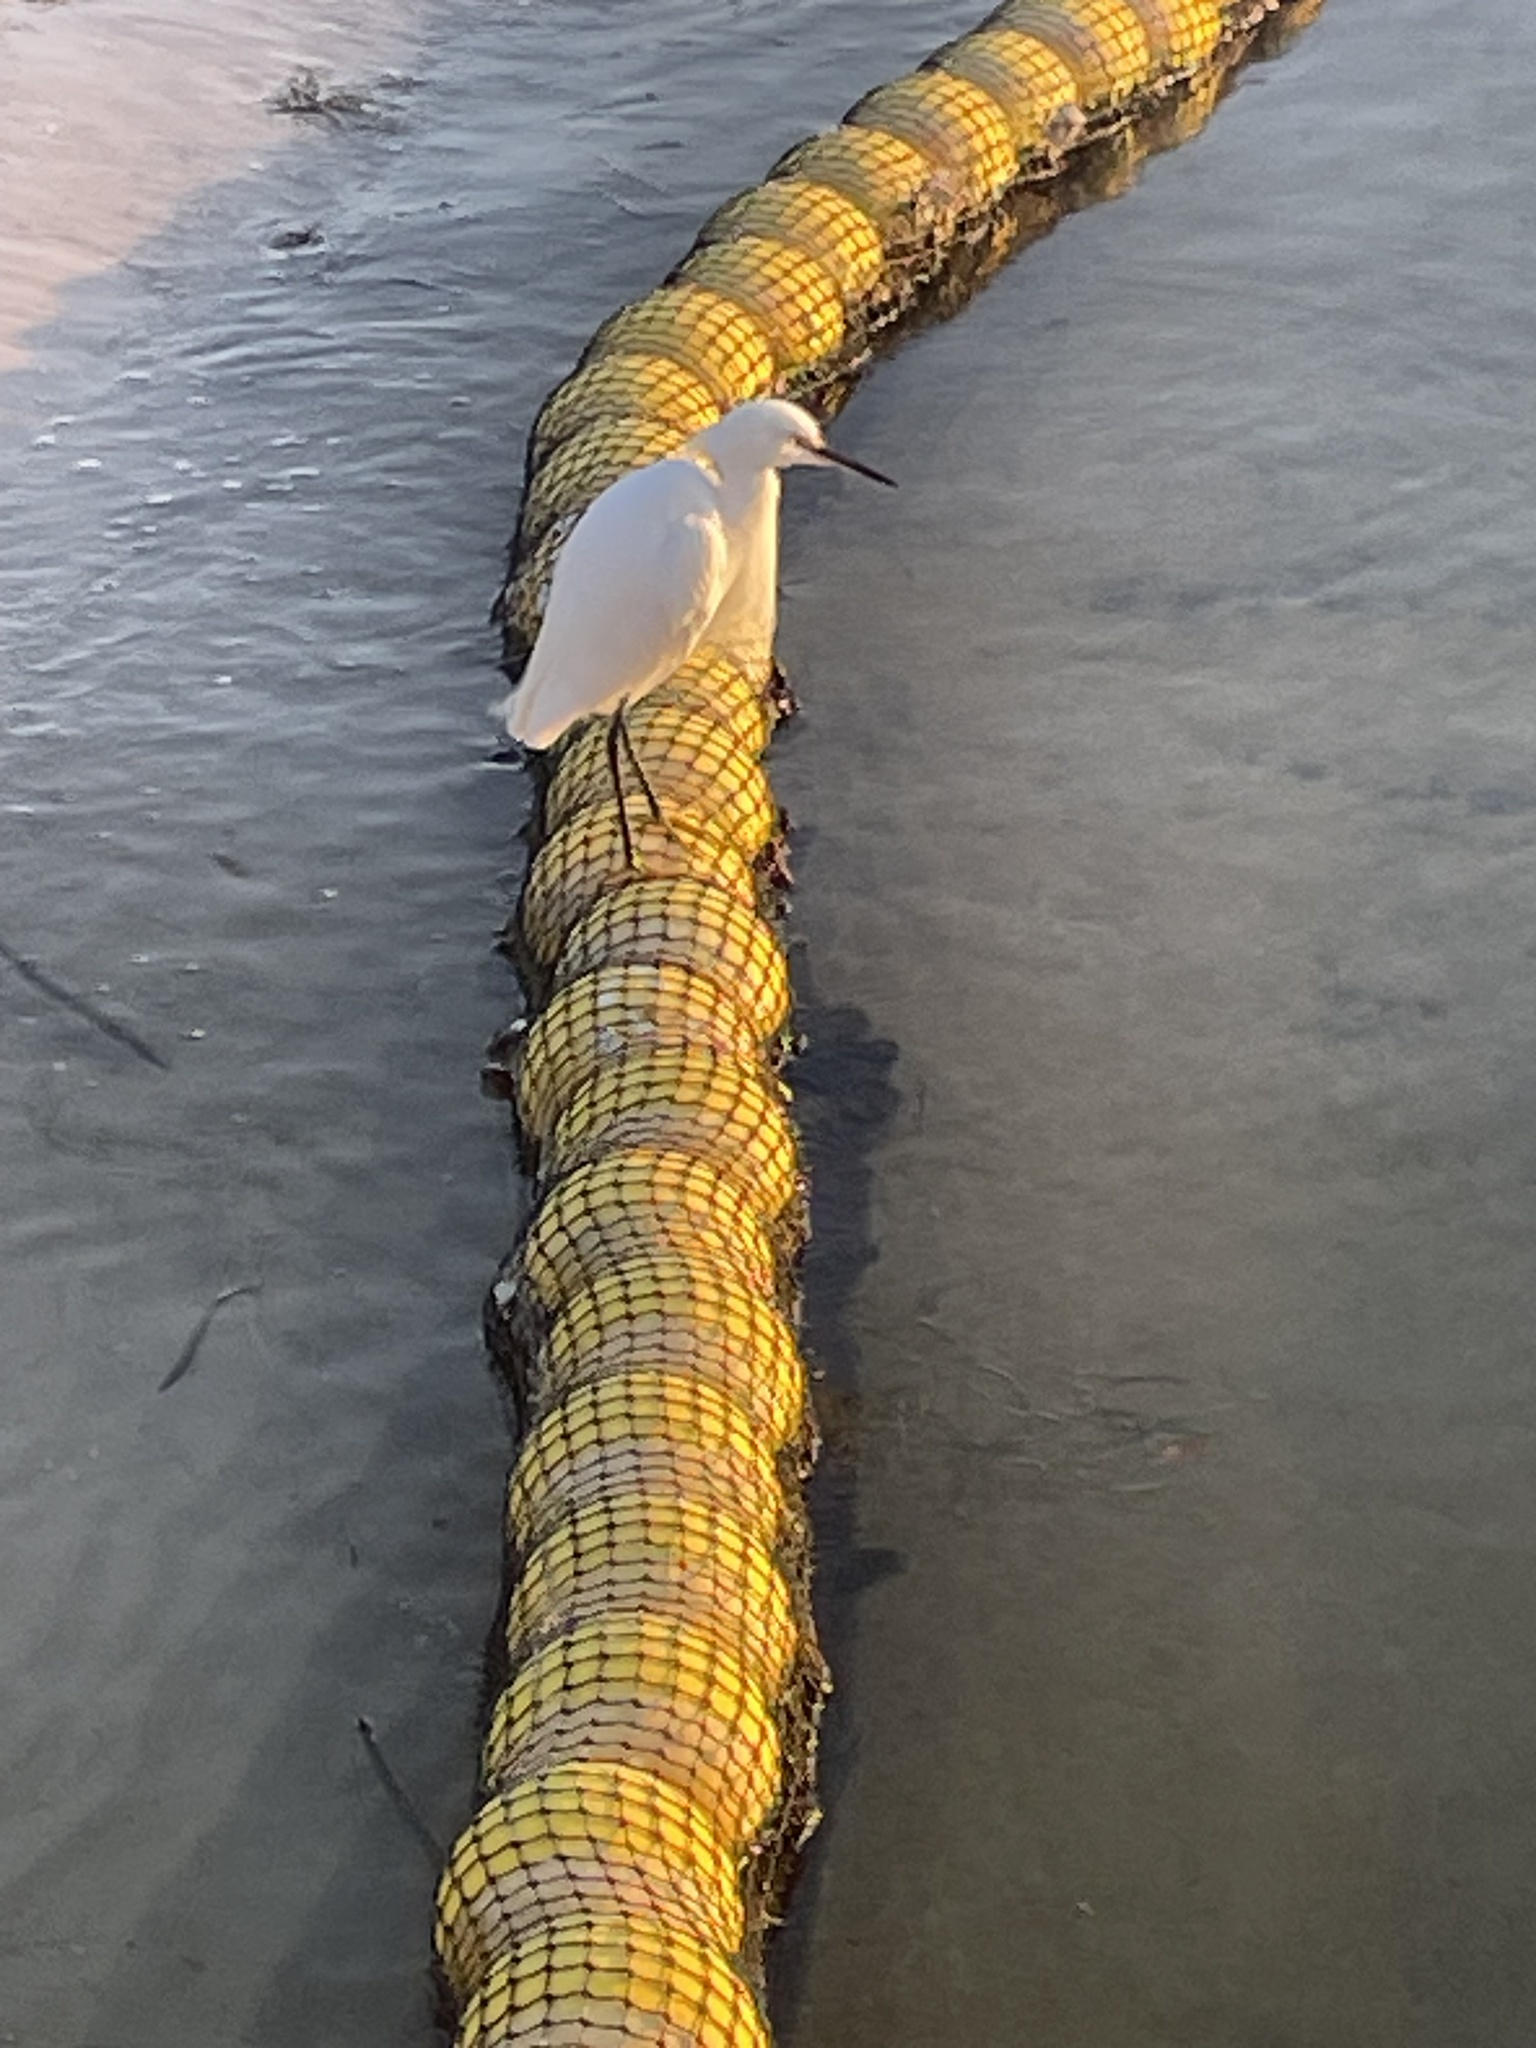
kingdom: Animalia
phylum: Chordata
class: Aves
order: Pelecaniformes
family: Ardeidae
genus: Egretta
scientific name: Egretta thula
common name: Snowy egret
